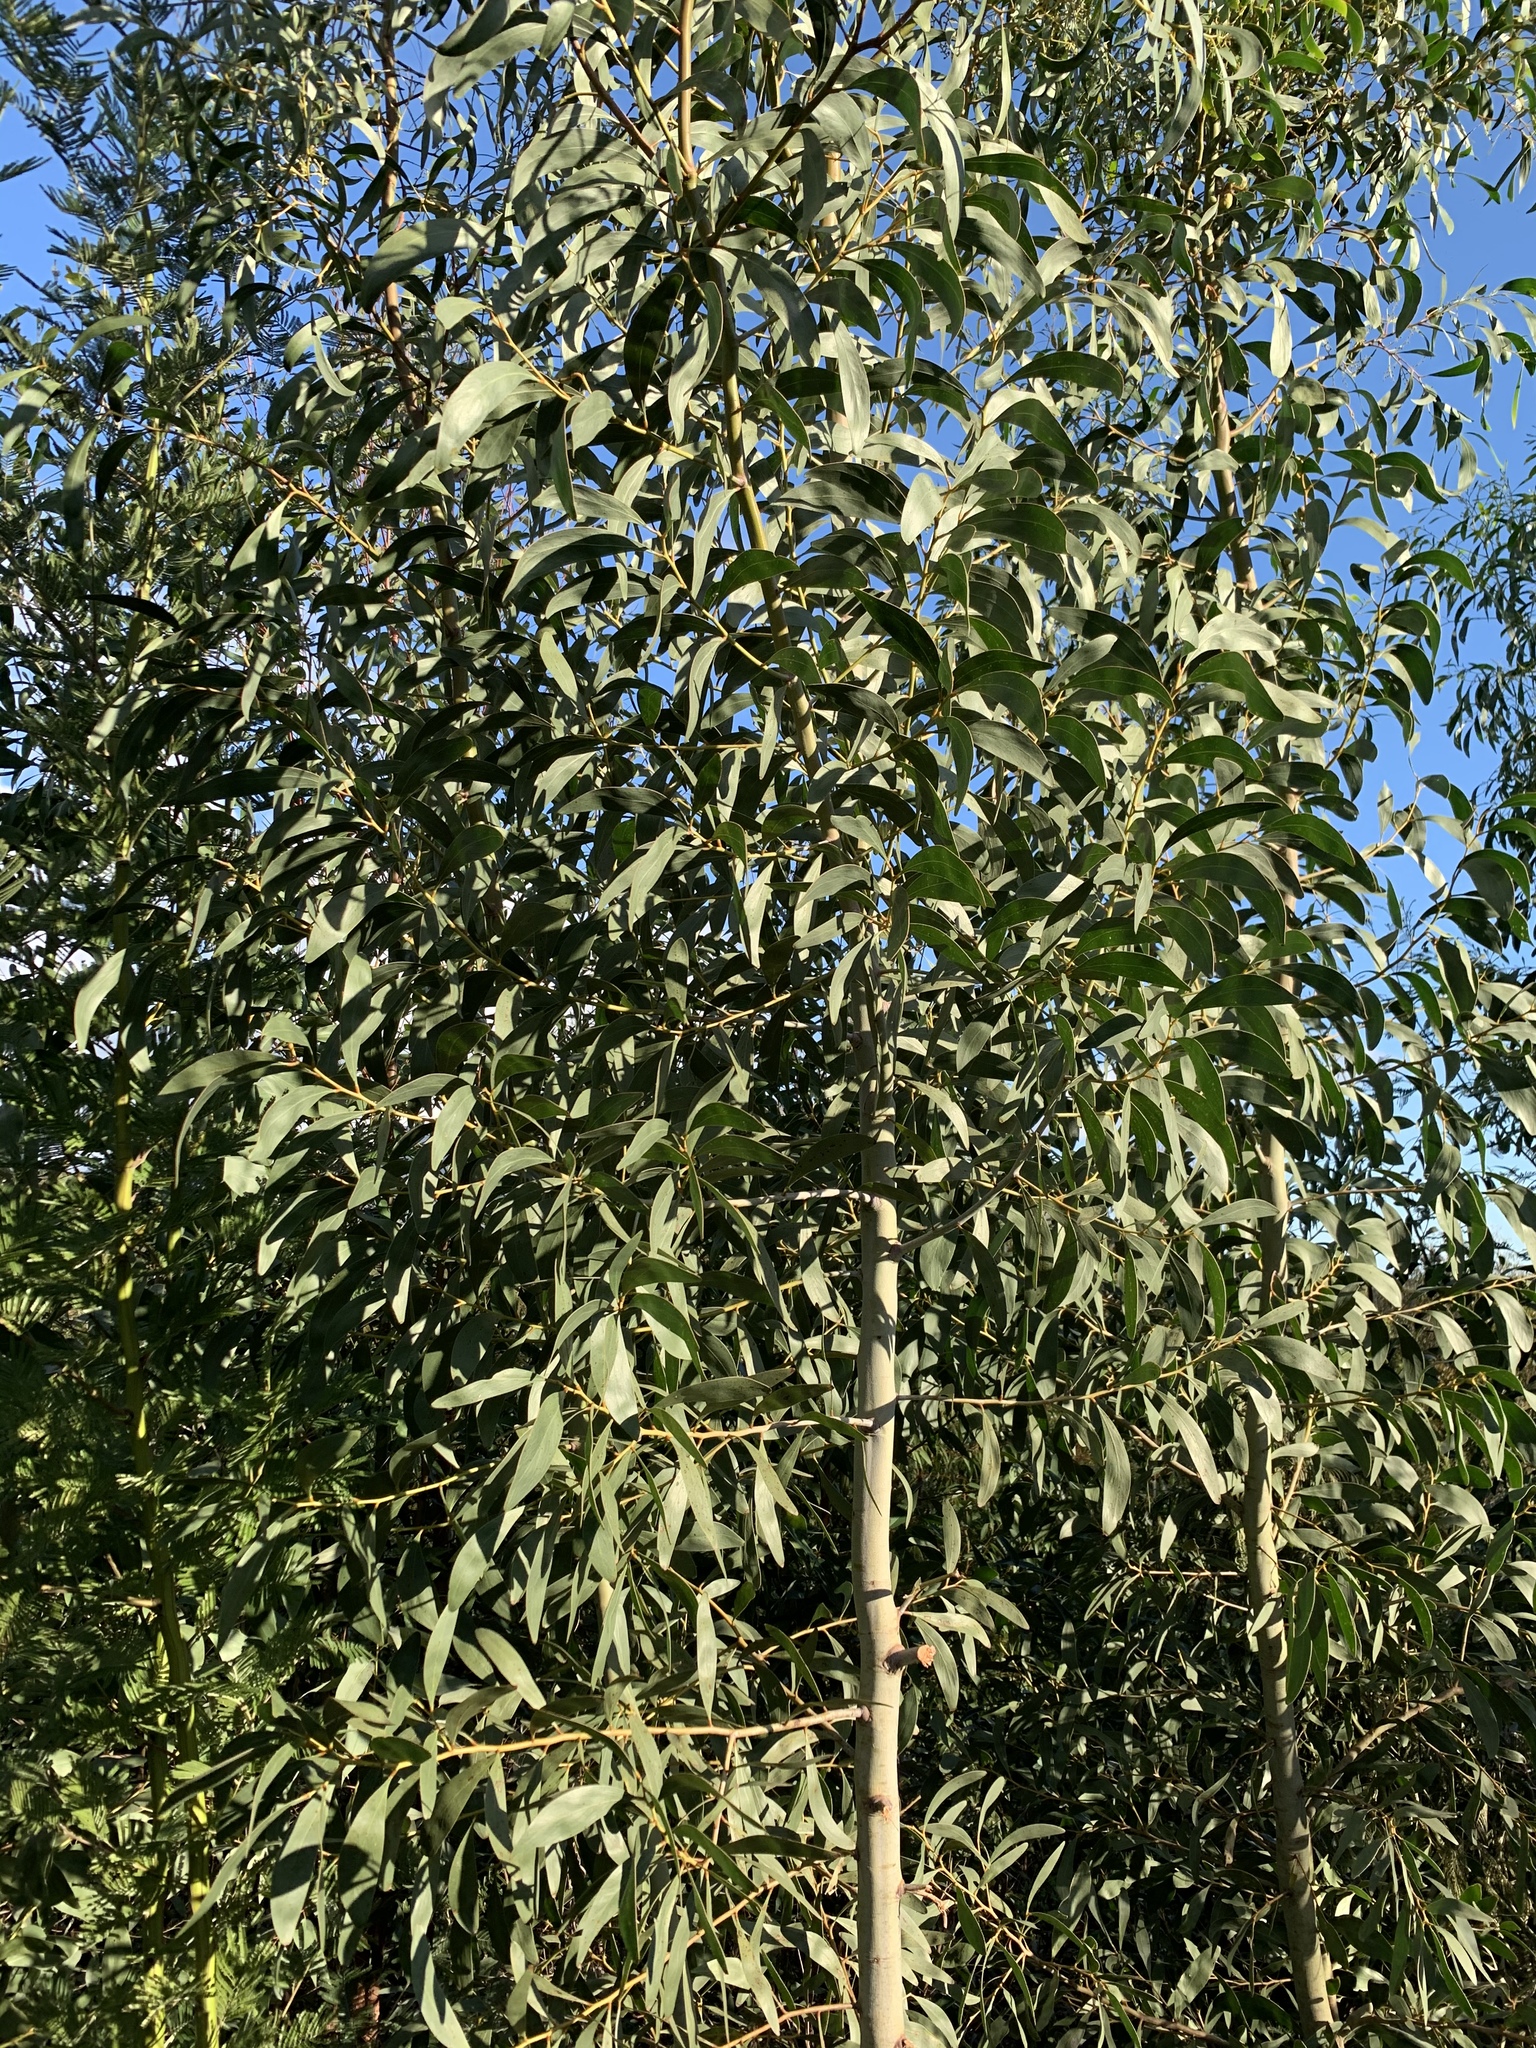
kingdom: Plantae
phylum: Tracheophyta
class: Magnoliopsida
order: Fabales
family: Fabaceae
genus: Acacia
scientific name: Acacia pycnantha
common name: Golden wattle
